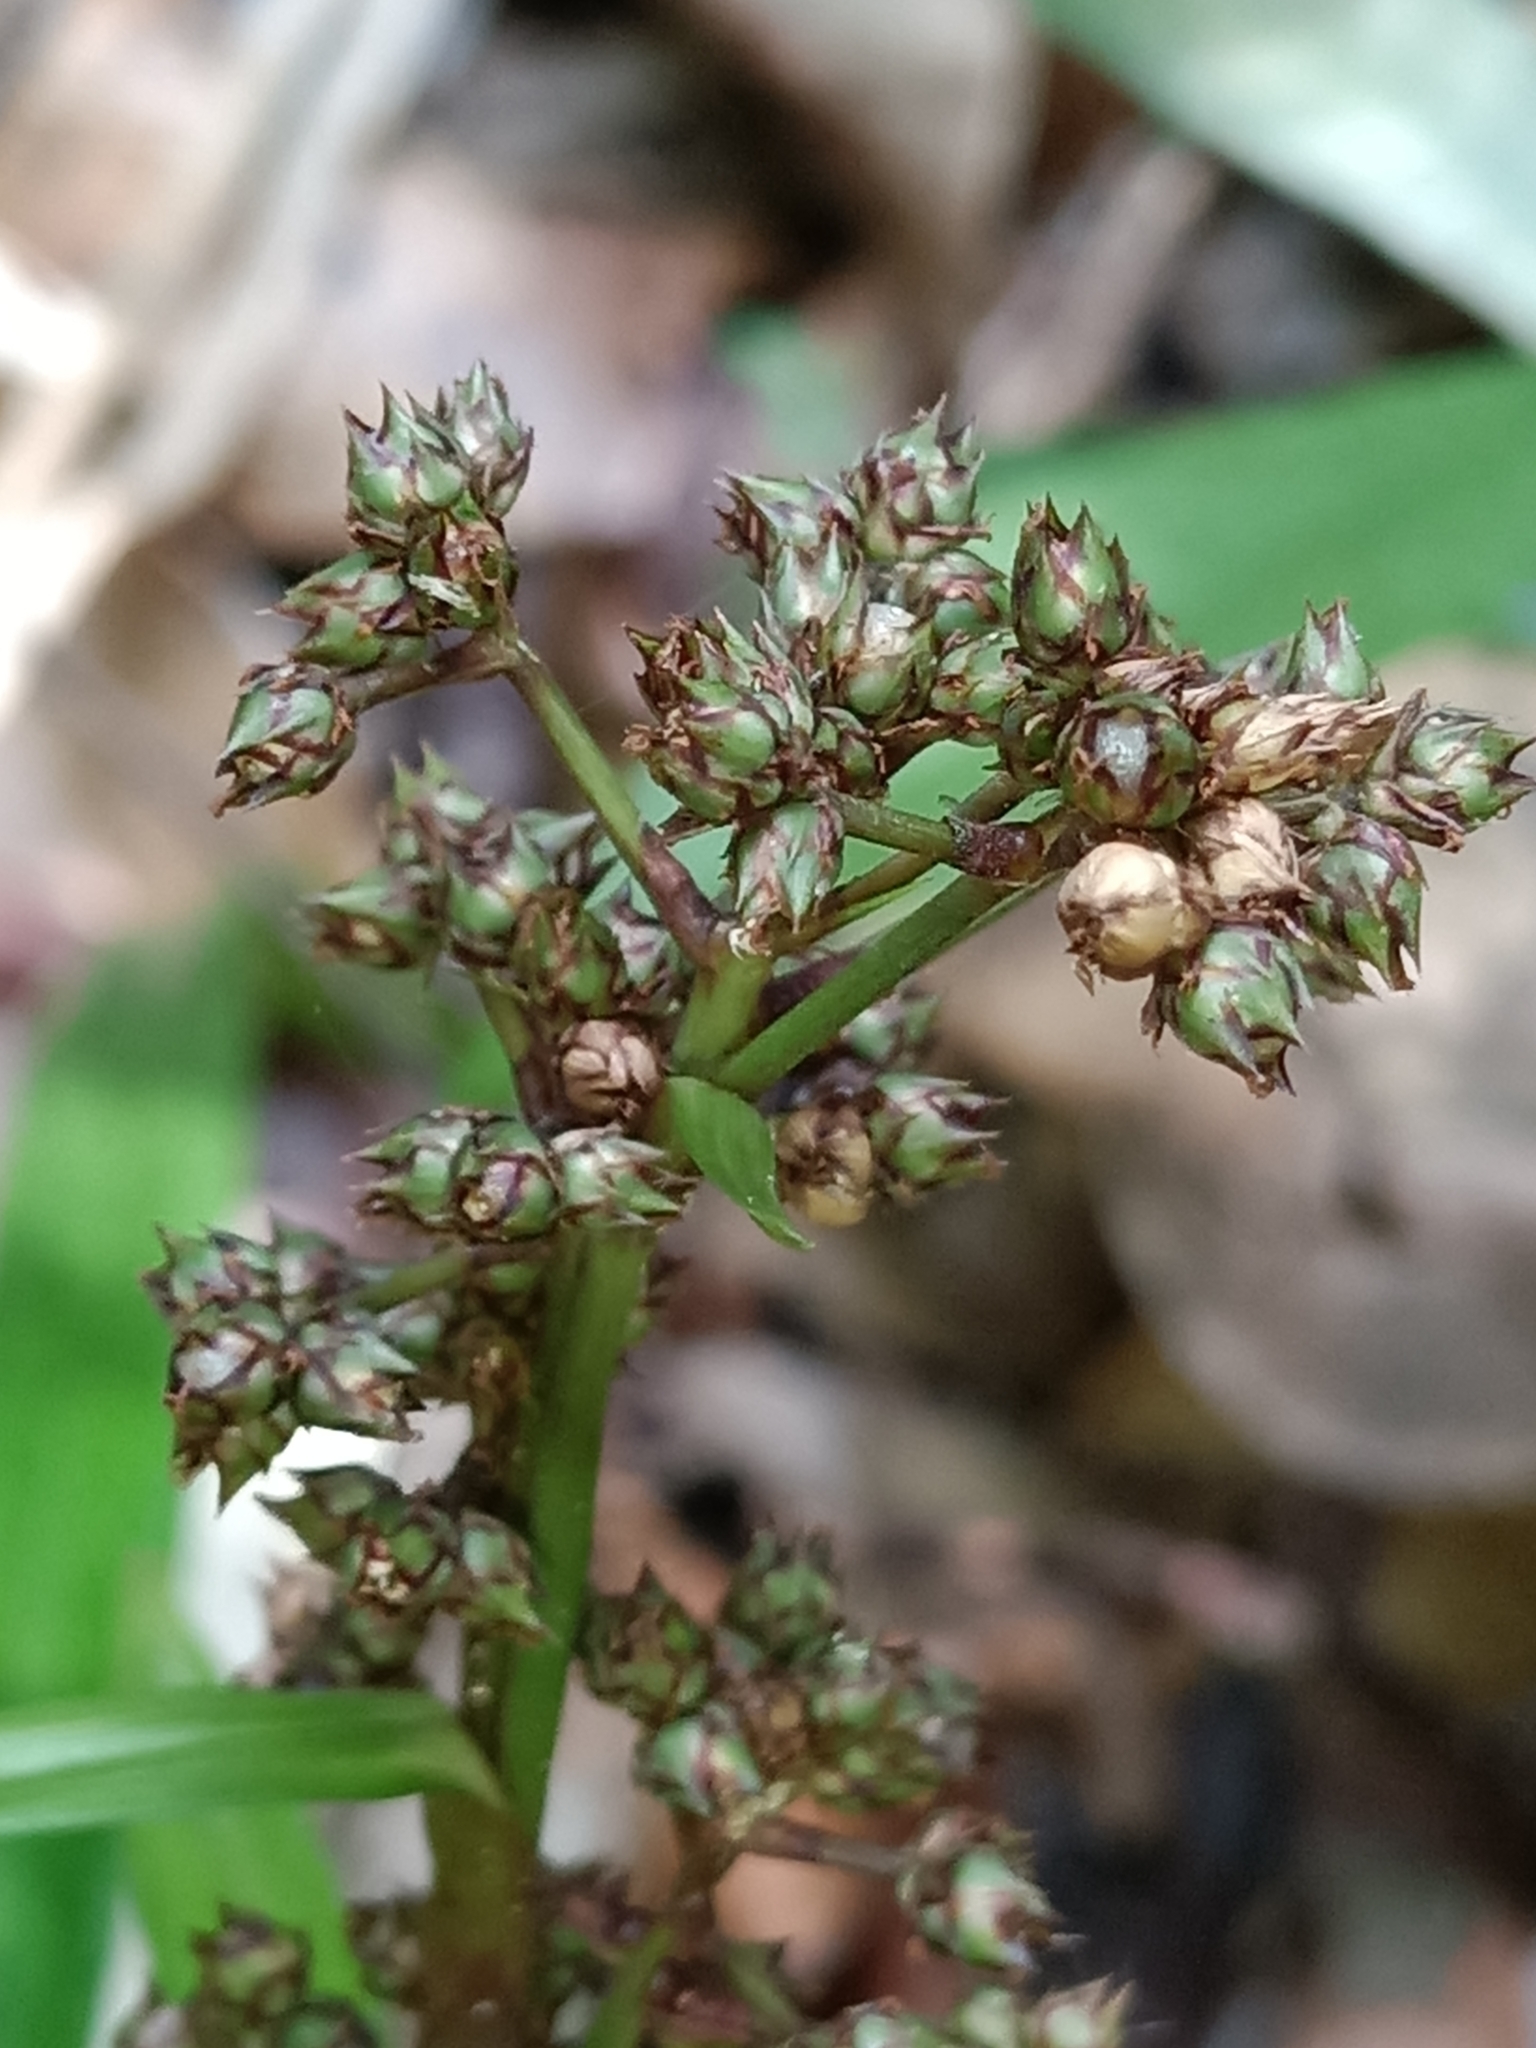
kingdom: Plantae
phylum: Tracheophyta
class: Liliopsida
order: Poales
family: Cyperaceae
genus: Becquerelia
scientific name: Becquerelia cymosa
